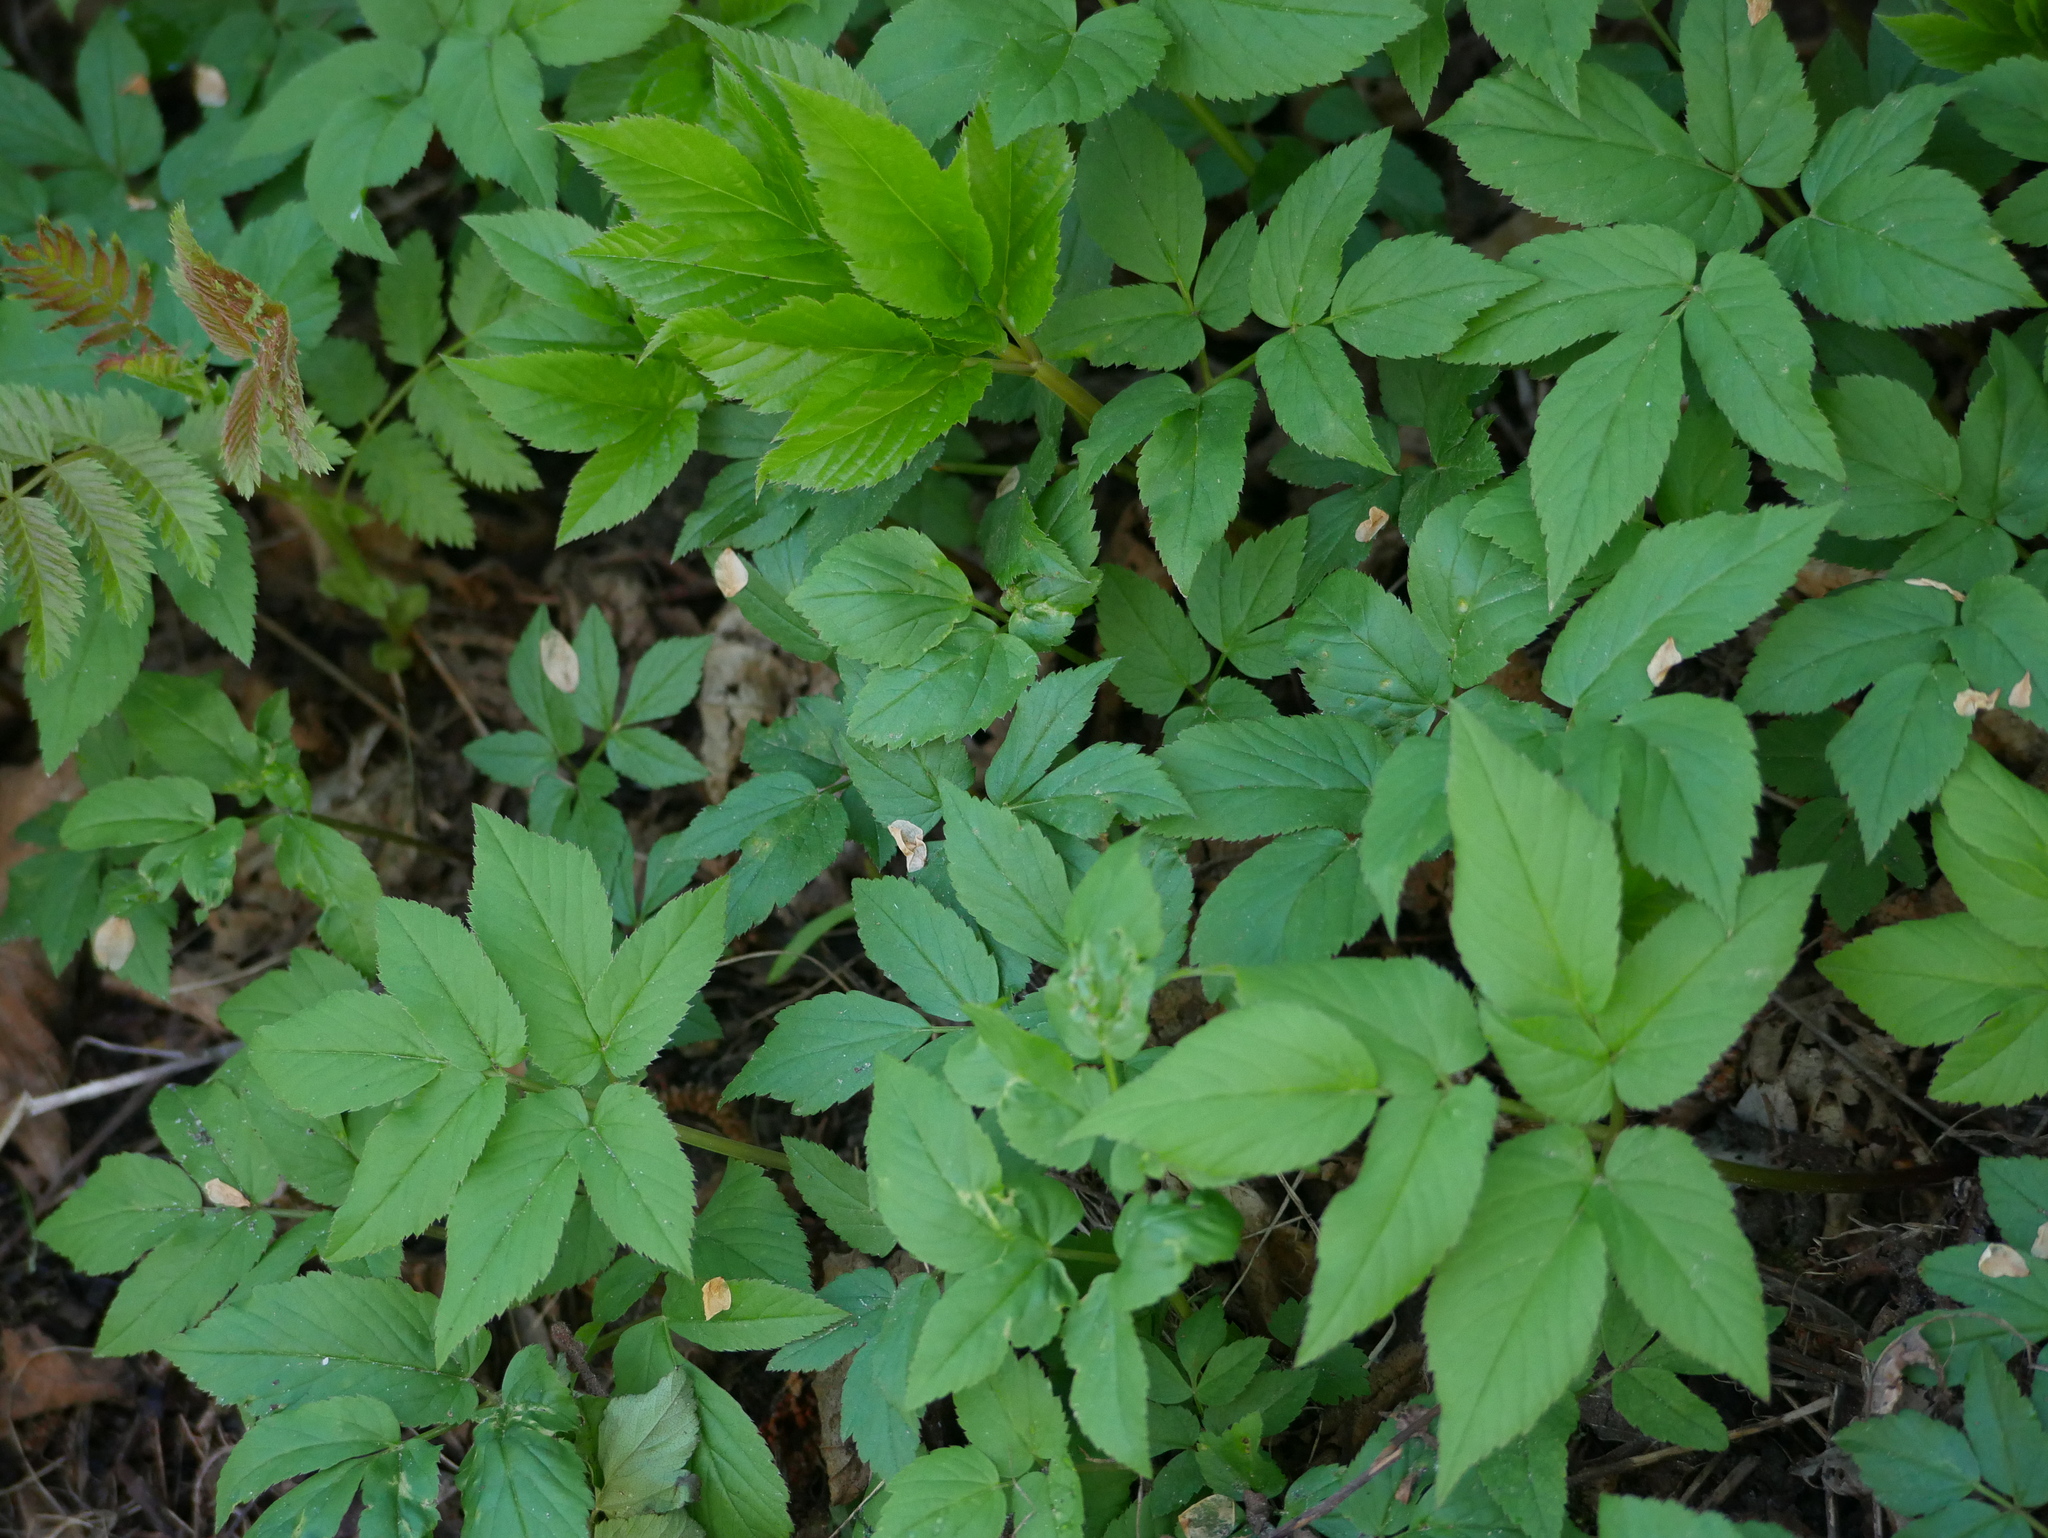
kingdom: Plantae
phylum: Tracheophyta
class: Magnoliopsida
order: Apiales
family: Apiaceae
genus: Aegopodium
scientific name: Aegopodium podagraria
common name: Ground-elder
